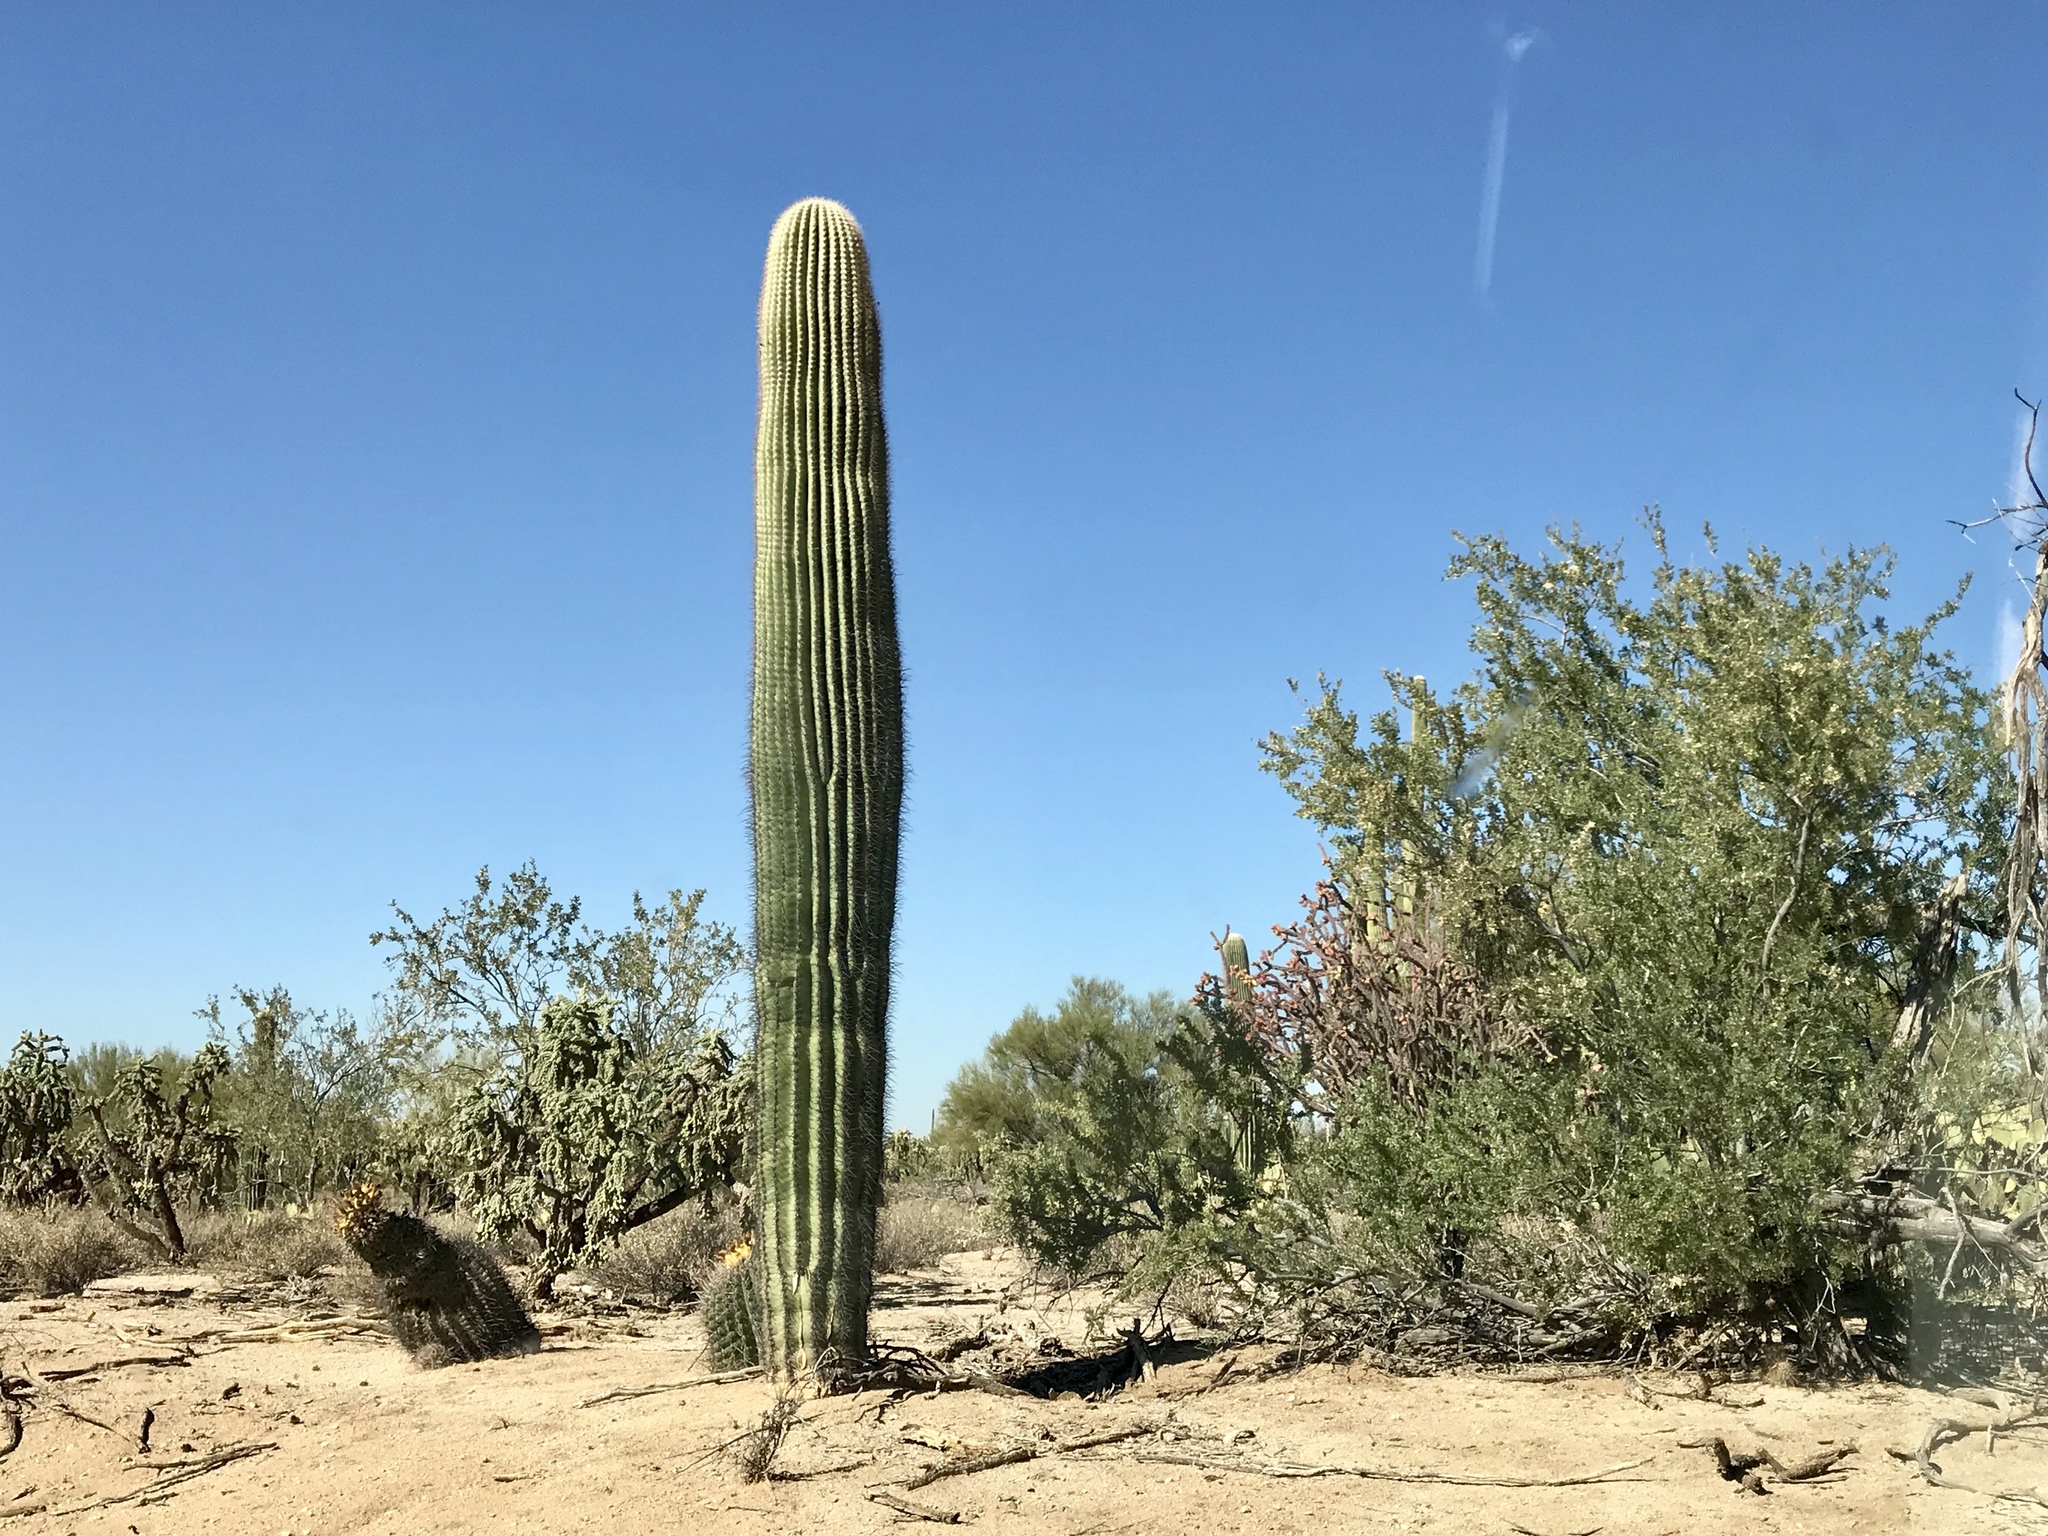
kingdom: Plantae
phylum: Tracheophyta
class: Magnoliopsida
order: Caryophyllales
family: Cactaceae
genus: Carnegiea
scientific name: Carnegiea gigantea
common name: Saguaro
